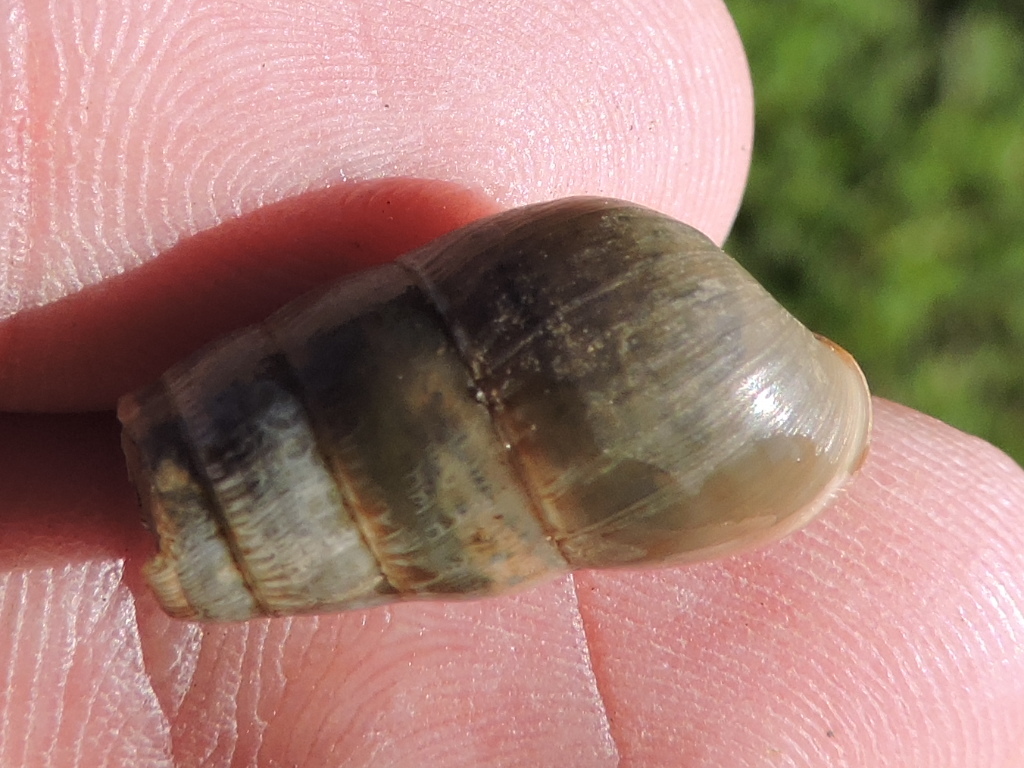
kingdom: Animalia
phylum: Mollusca
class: Gastropoda
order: Stylommatophora
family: Achatinidae
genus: Rumina
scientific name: Rumina decollata
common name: Decollate snail
